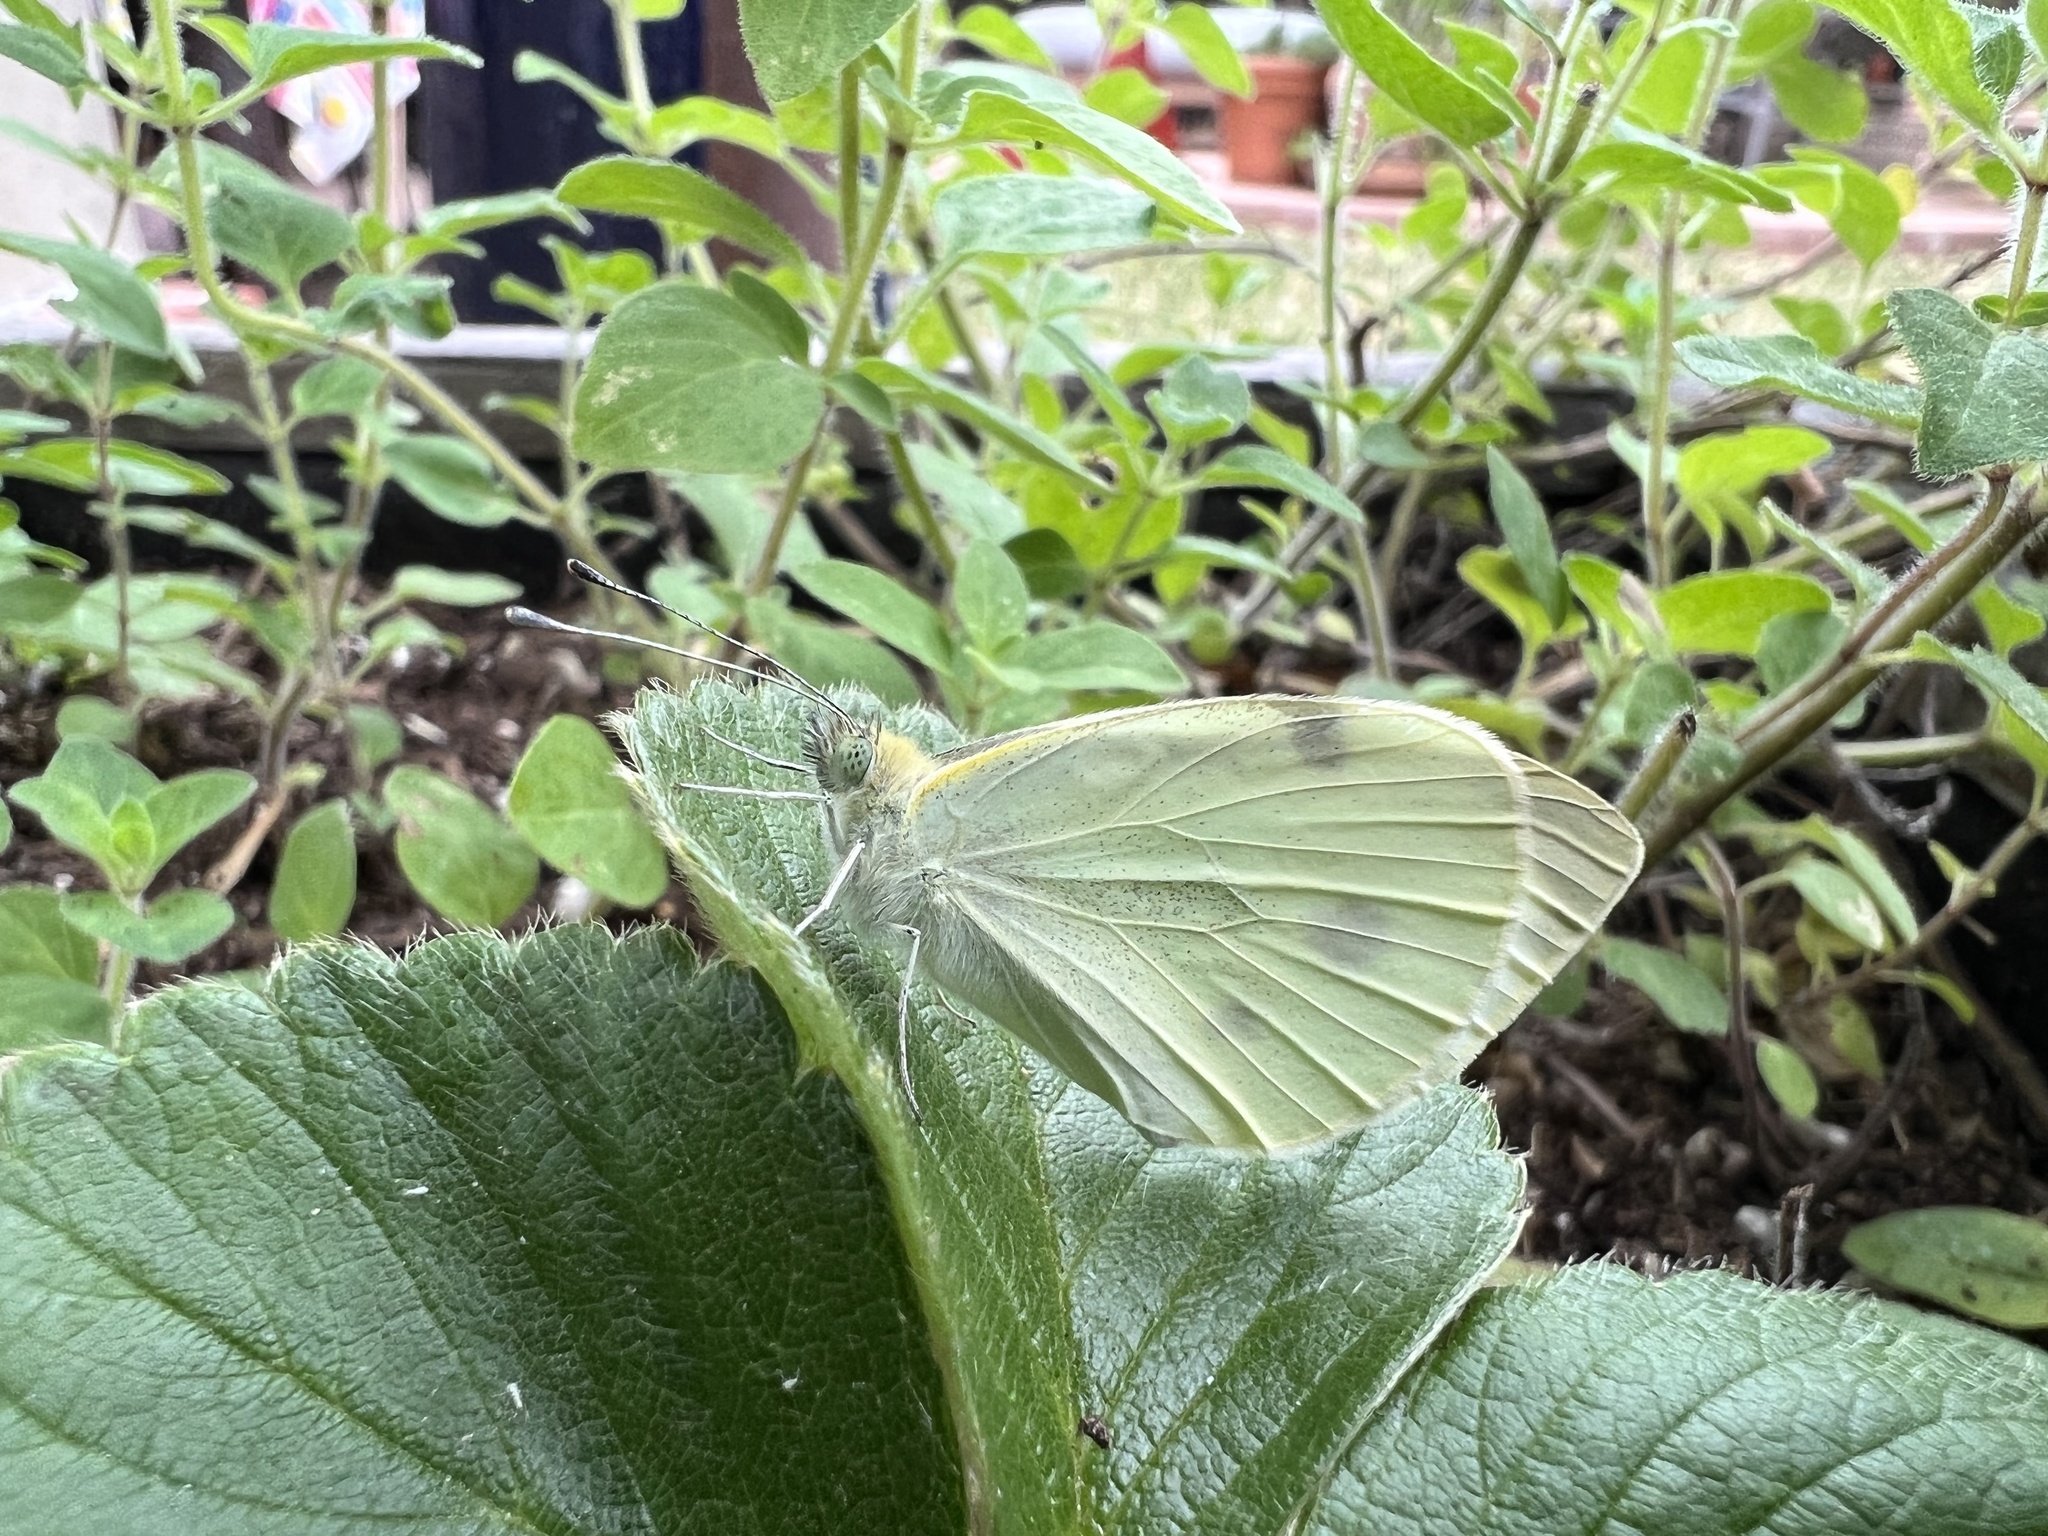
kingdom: Animalia
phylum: Arthropoda
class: Insecta
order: Lepidoptera
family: Pieridae
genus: Pieris
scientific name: Pieris rapae
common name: Small white
